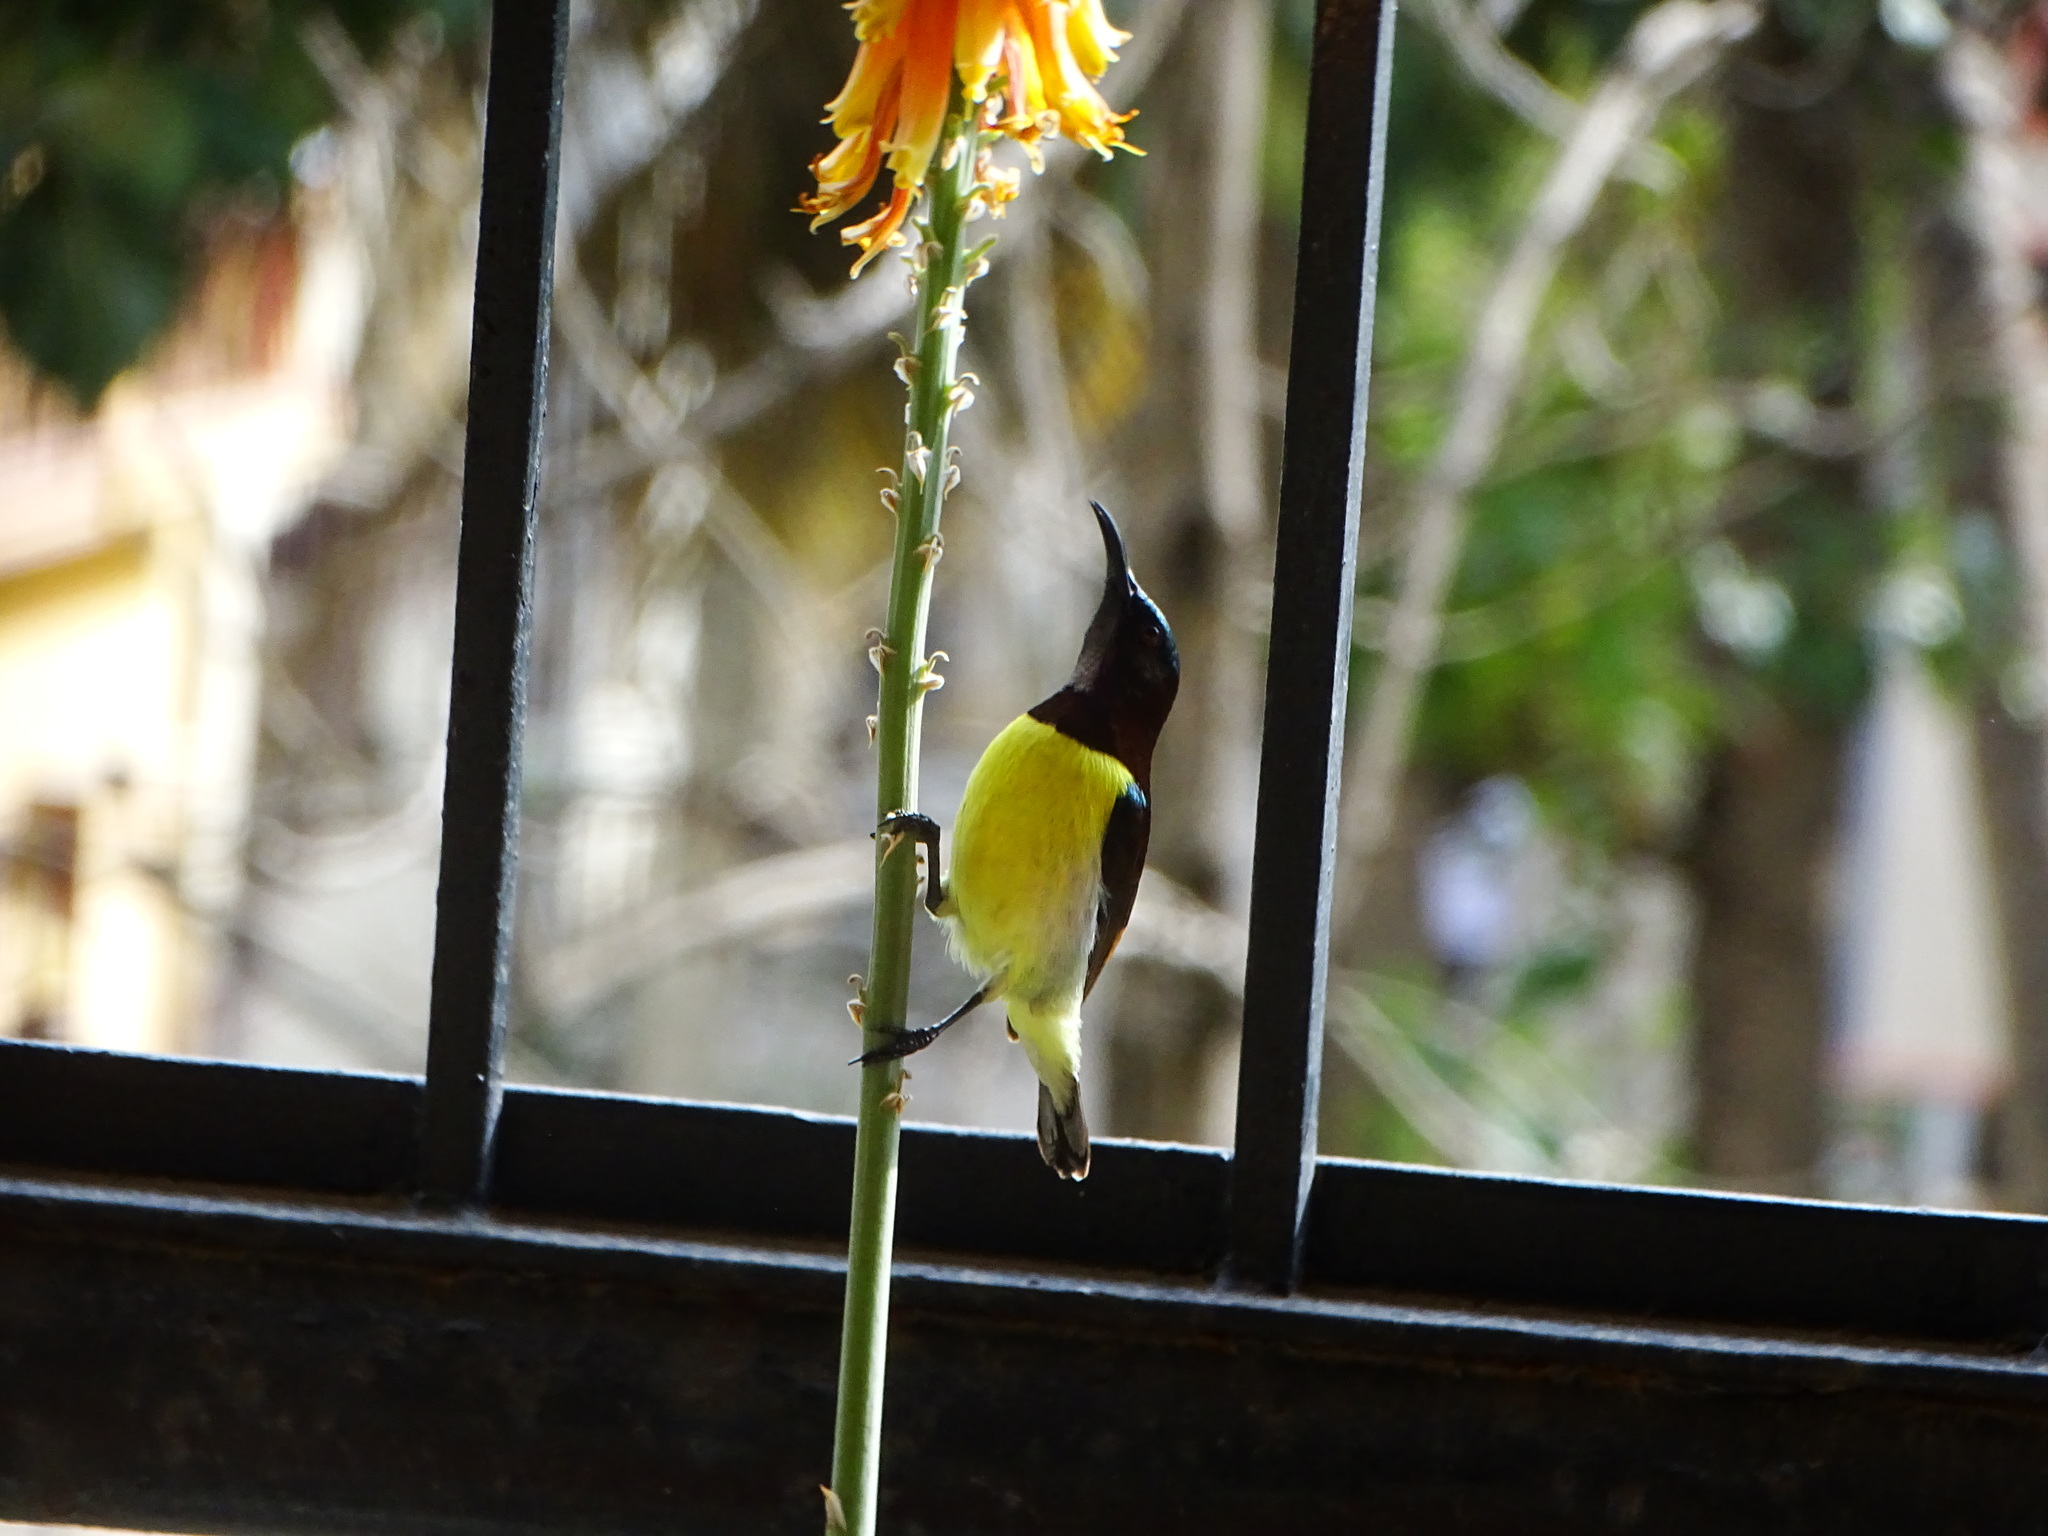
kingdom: Animalia
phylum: Chordata
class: Aves
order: Passeriformes
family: Nectariniidae
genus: Leptocoma
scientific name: Leptocoma zeylonica
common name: Purple-rumped sunbird
